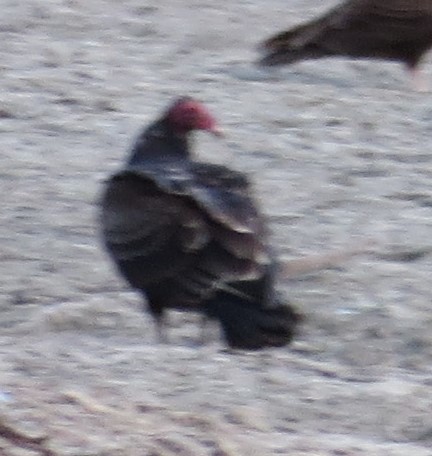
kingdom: Animalia
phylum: Chordata
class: Aves
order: Accipitriformes
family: Cathartidae
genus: Cathartes
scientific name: Cathartes aura
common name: Turkey vulture
